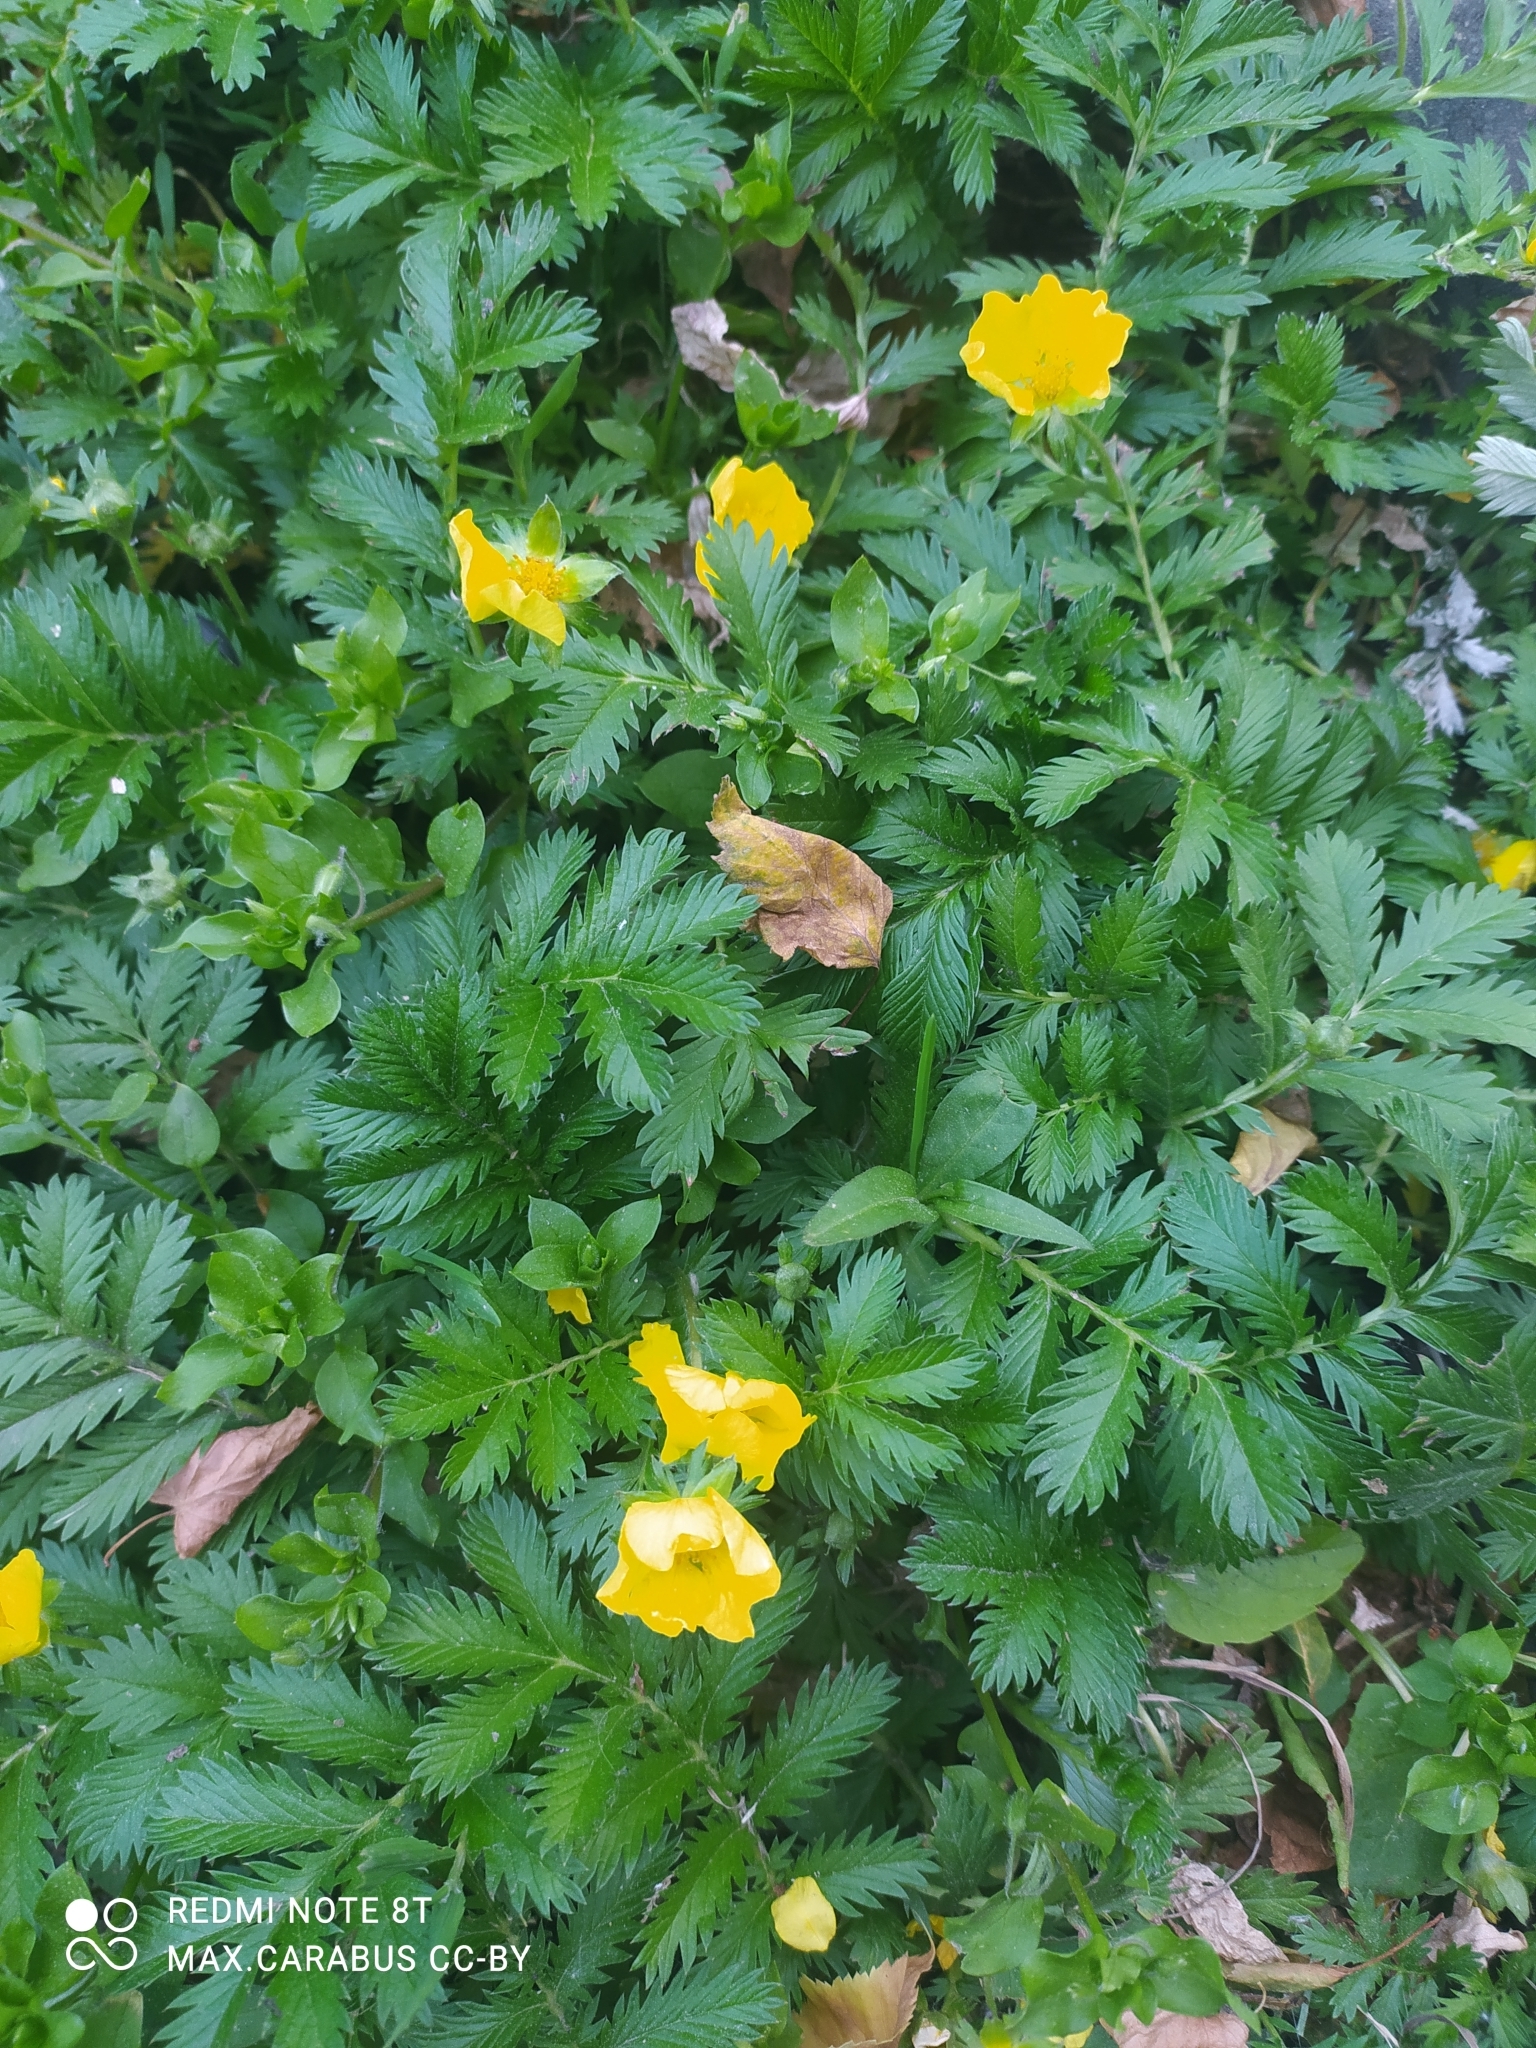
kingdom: Plantae
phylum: Tracheophyta
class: Magnoliopsida
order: Rosales
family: Rosaceae
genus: Argentina
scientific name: Argentina anserina
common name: Common silverweed
